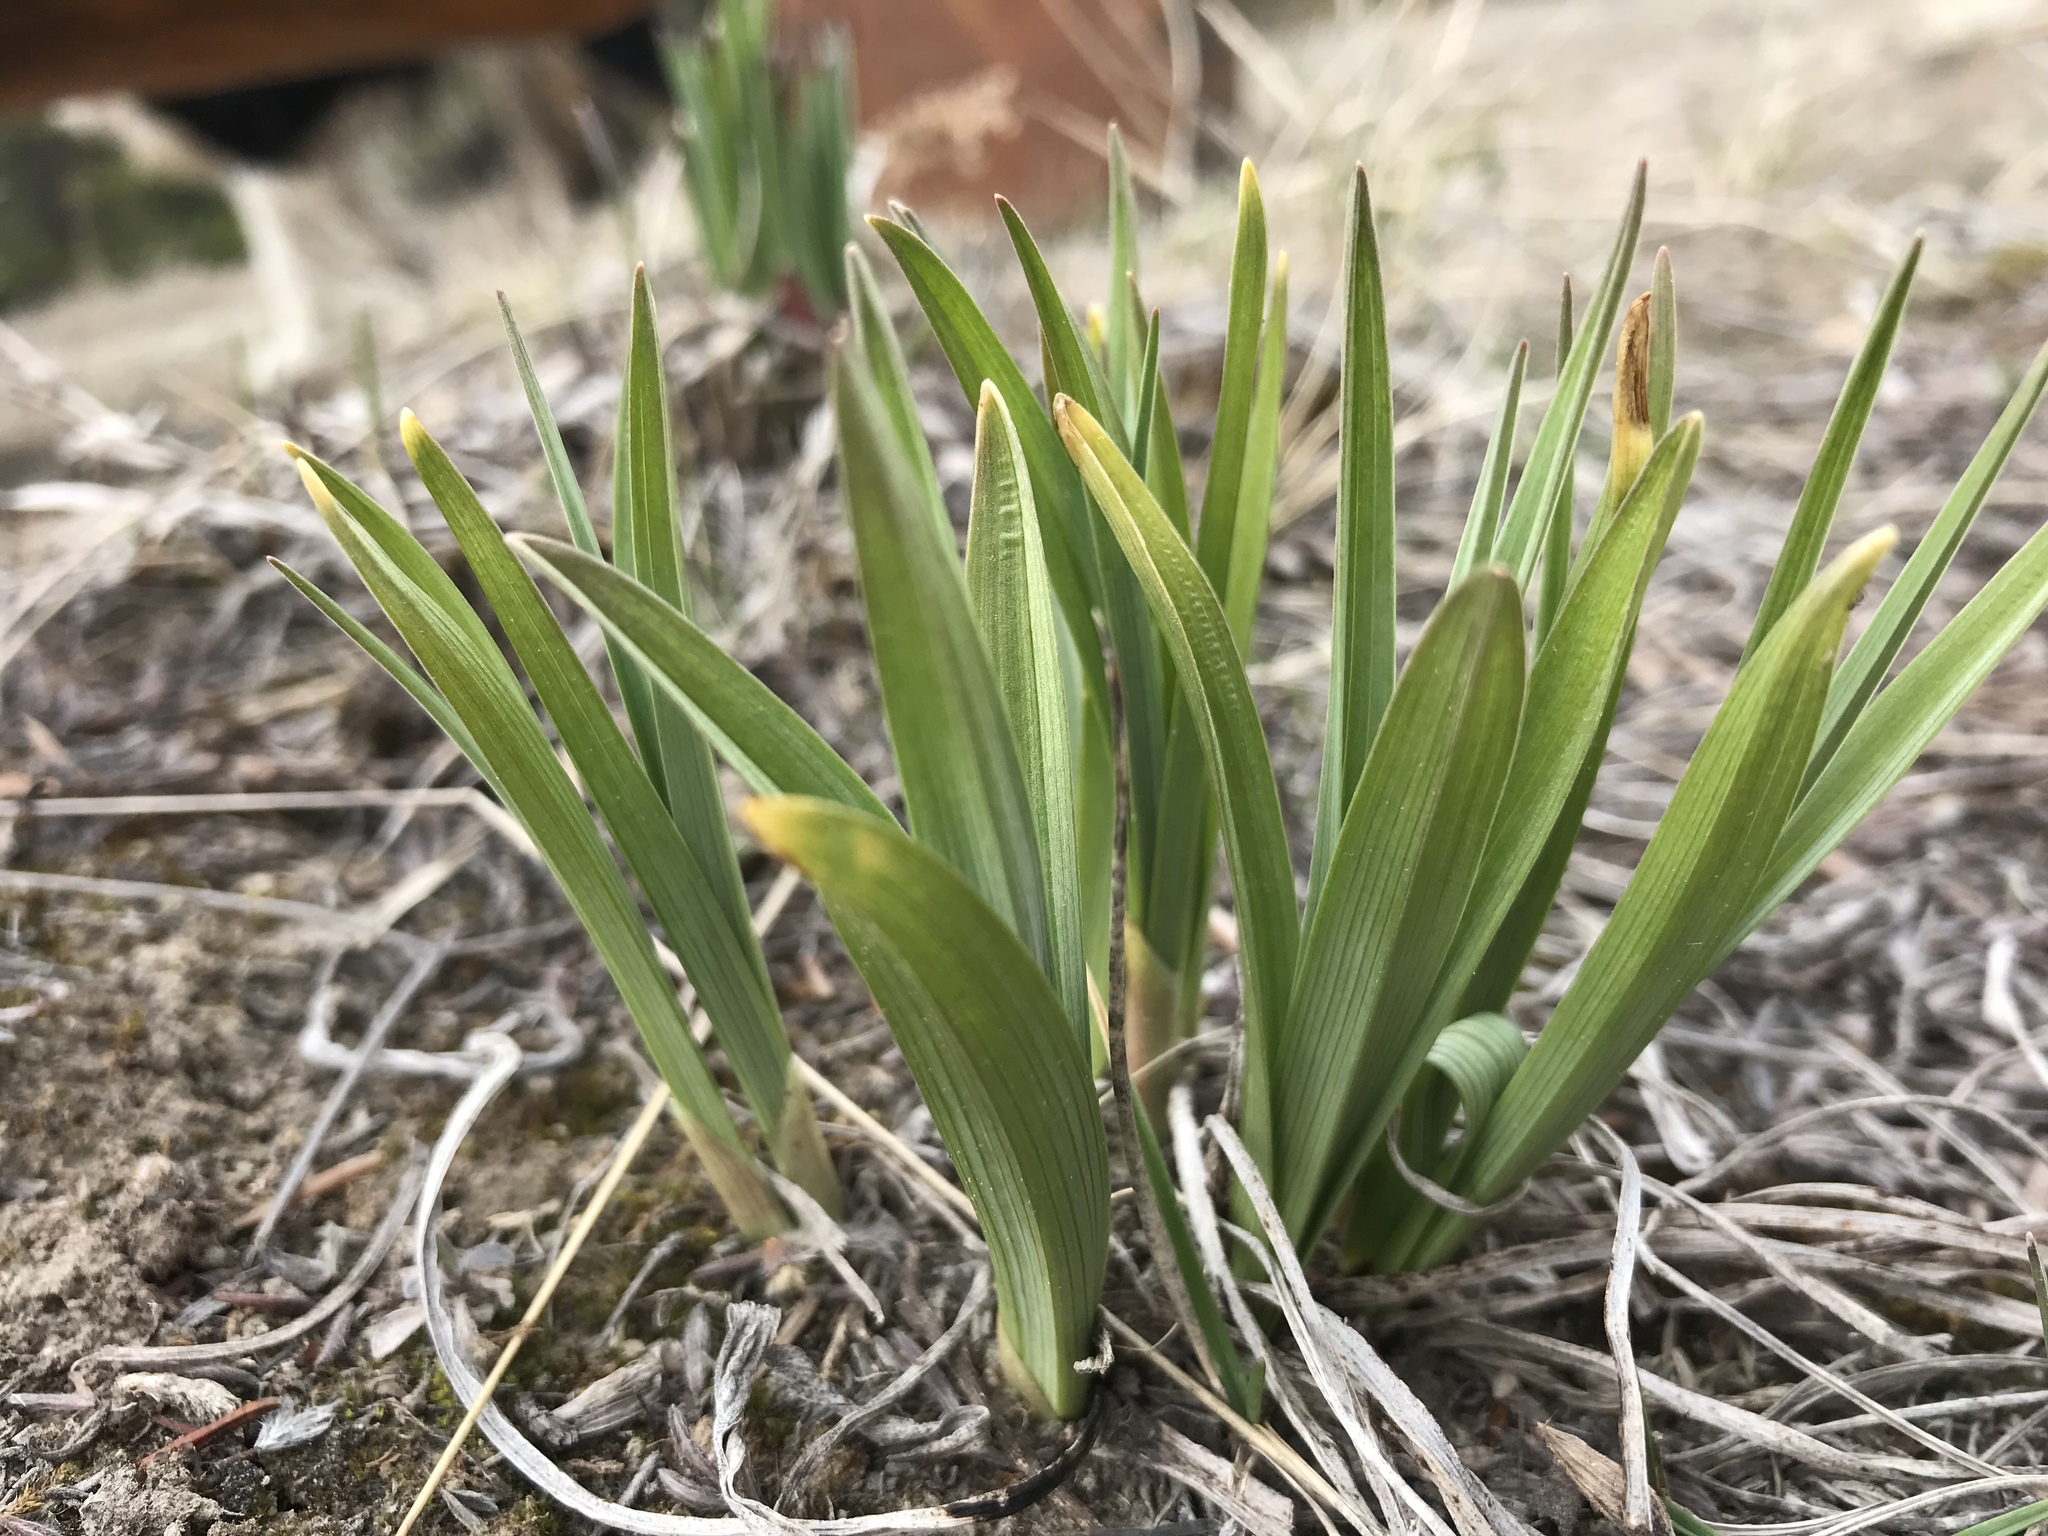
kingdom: Plantae
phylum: Tracheophyta
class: Liliopsida
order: Liliales
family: Melanthiaceae
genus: Anticlea
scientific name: Anticlea elegans
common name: Mountain death camas
